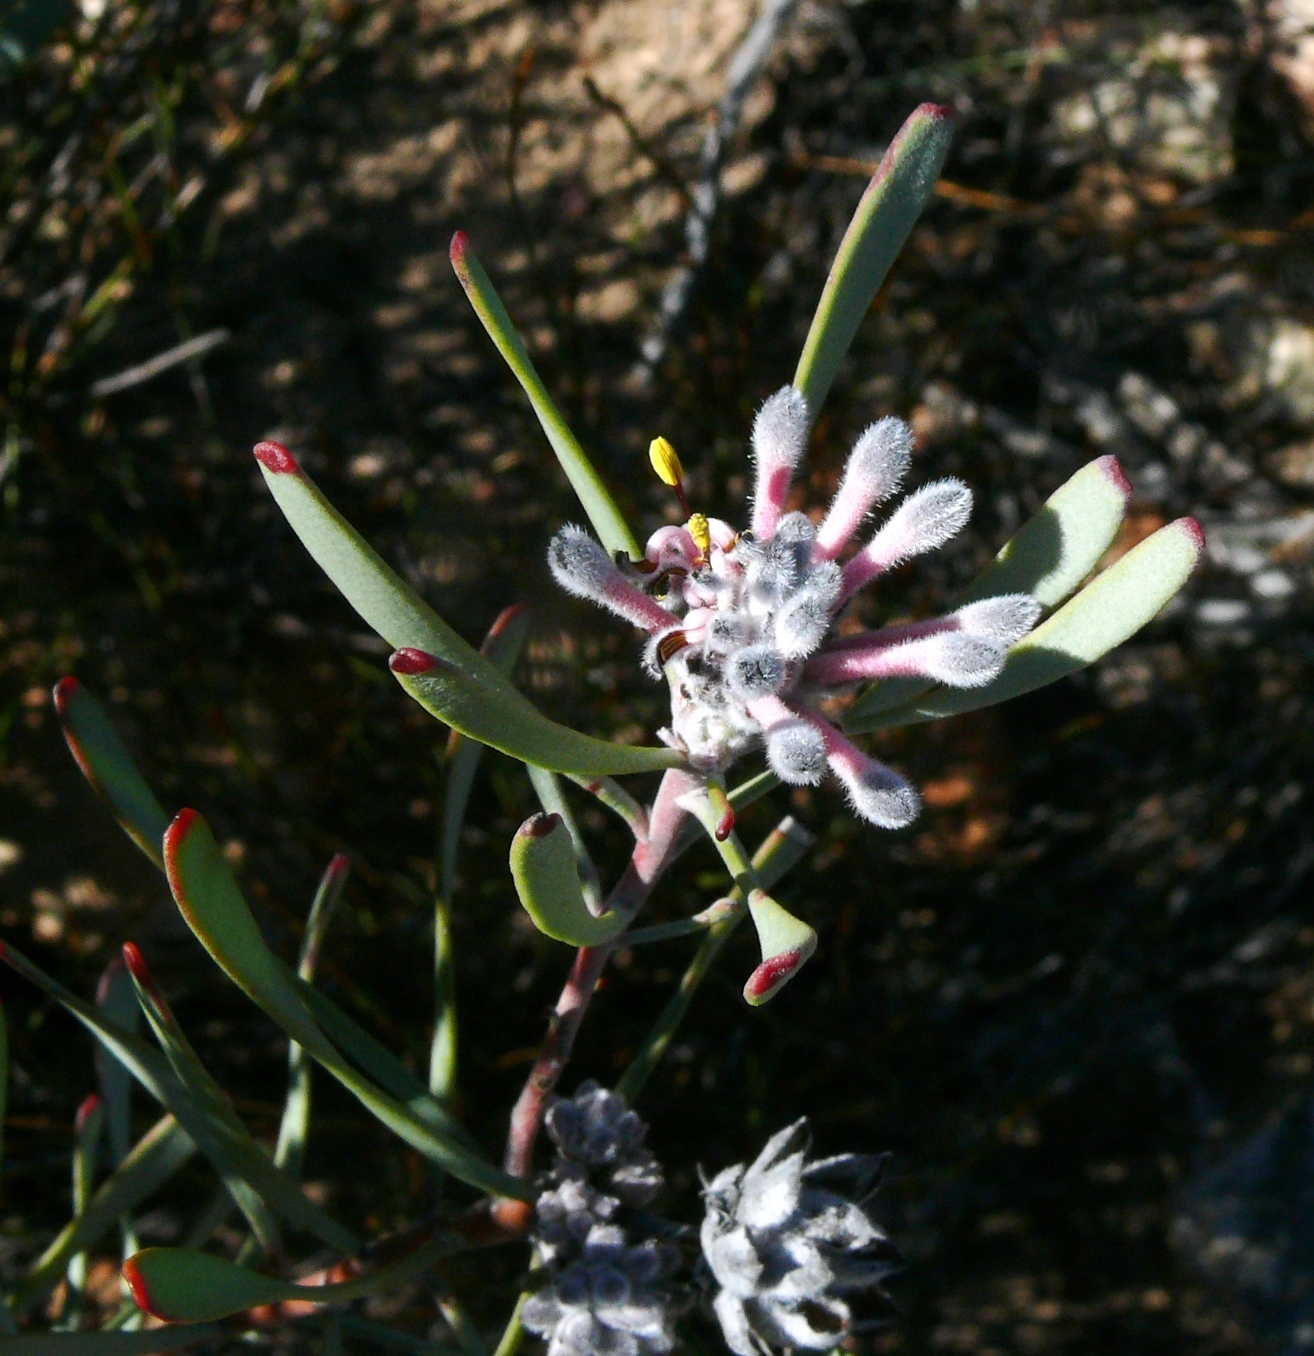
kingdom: Plantae
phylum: Tracheophyta
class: Magnoliopsida
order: Proteales
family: Proteaceae
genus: Vexatorella
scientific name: Vexatorella obtusata
